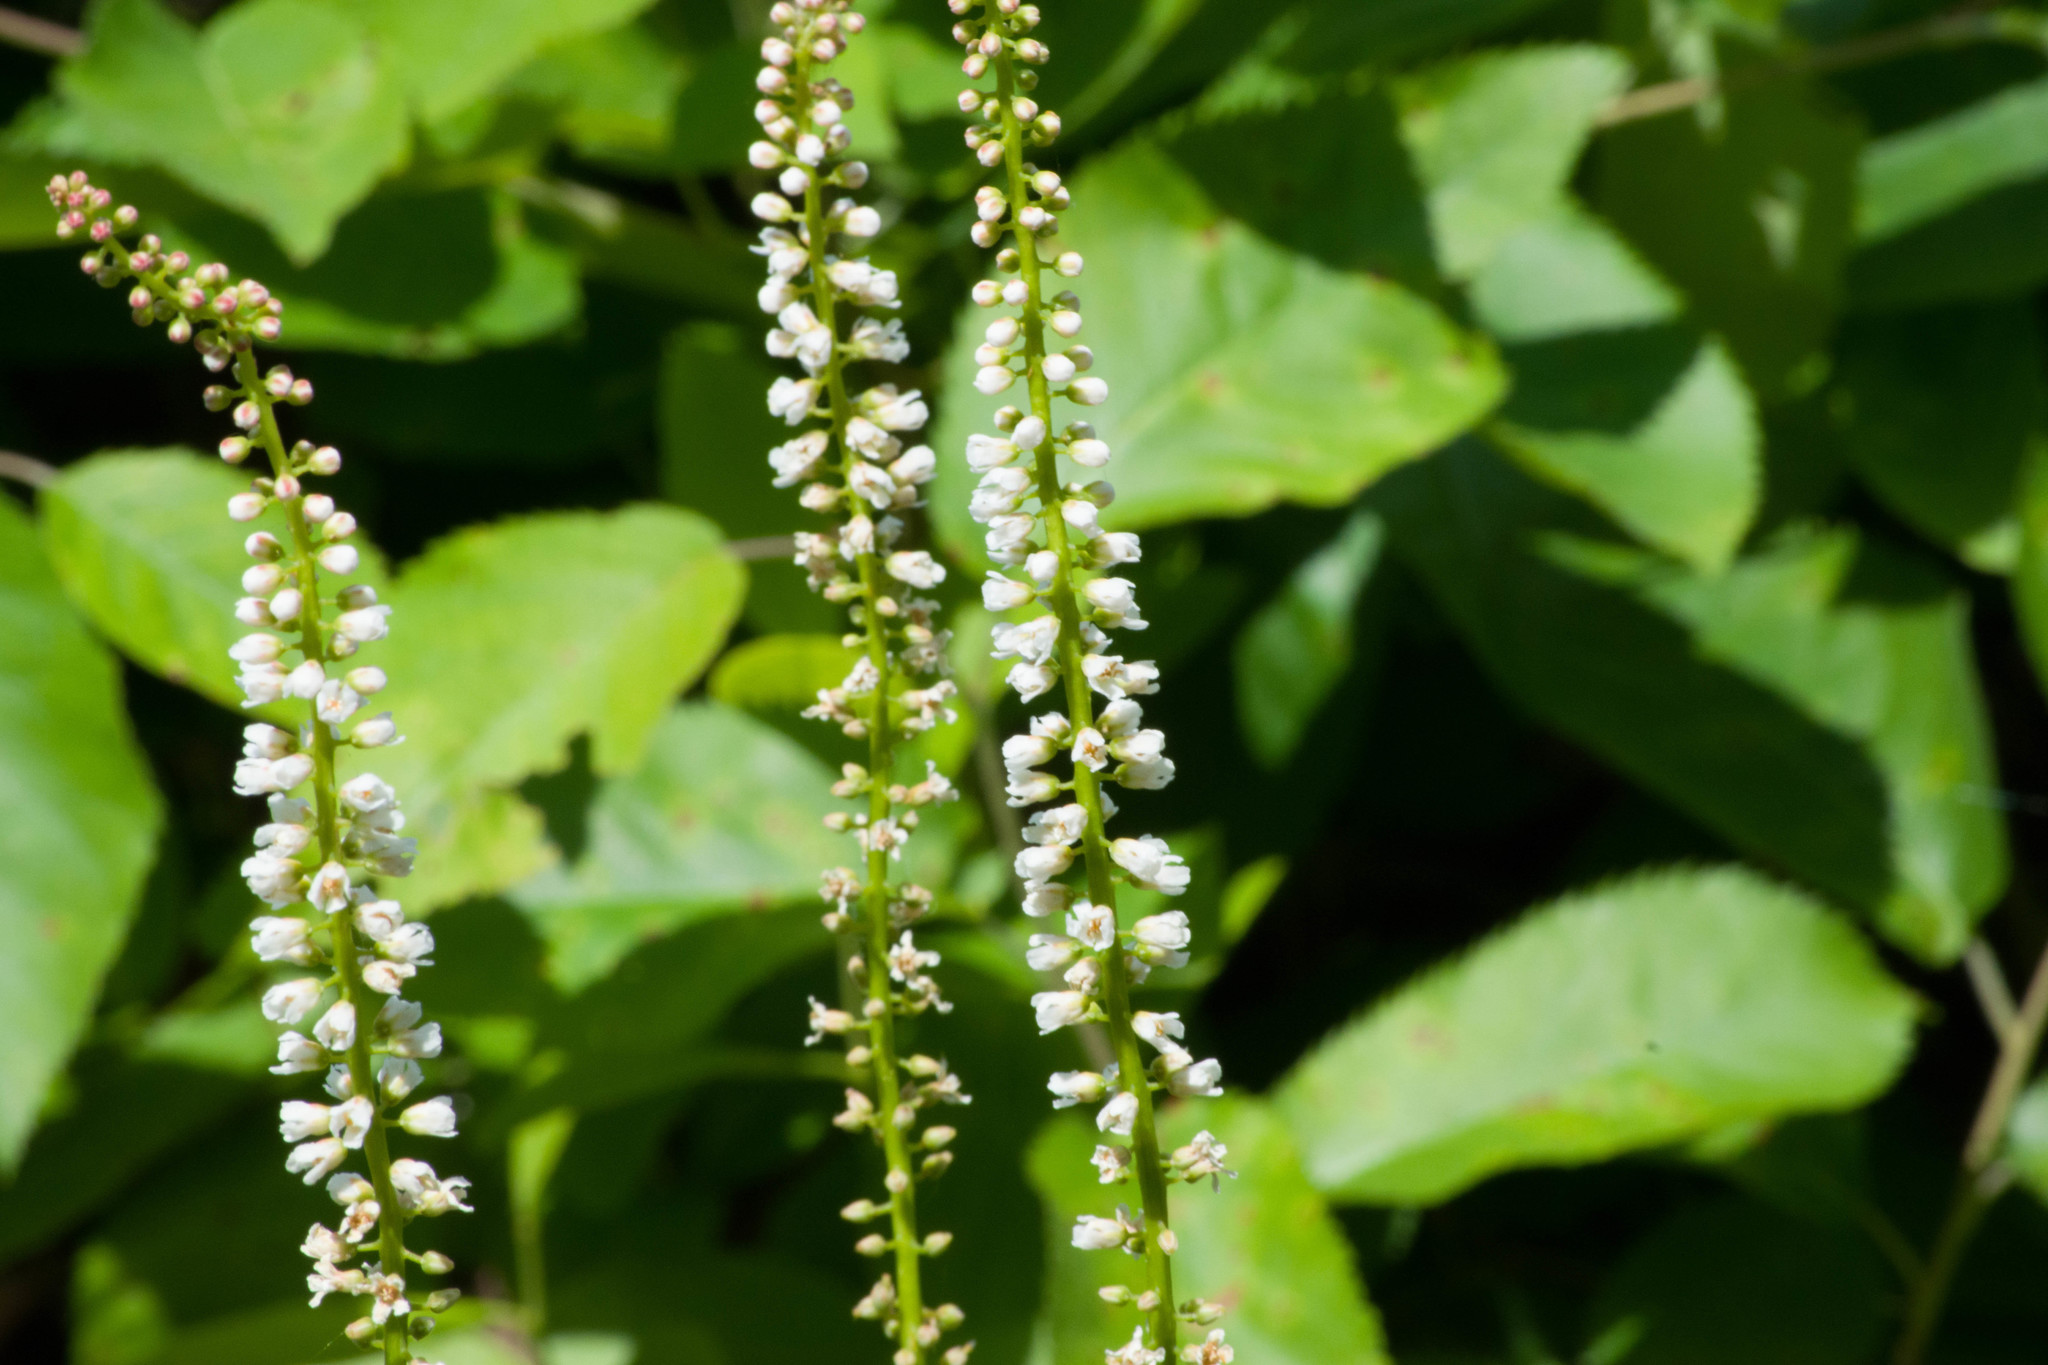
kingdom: Plantae
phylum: Tracheophyta
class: Magnoliopsida
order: Ericales
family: Diapensiaceae
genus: Galax
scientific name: Galax urceolata
